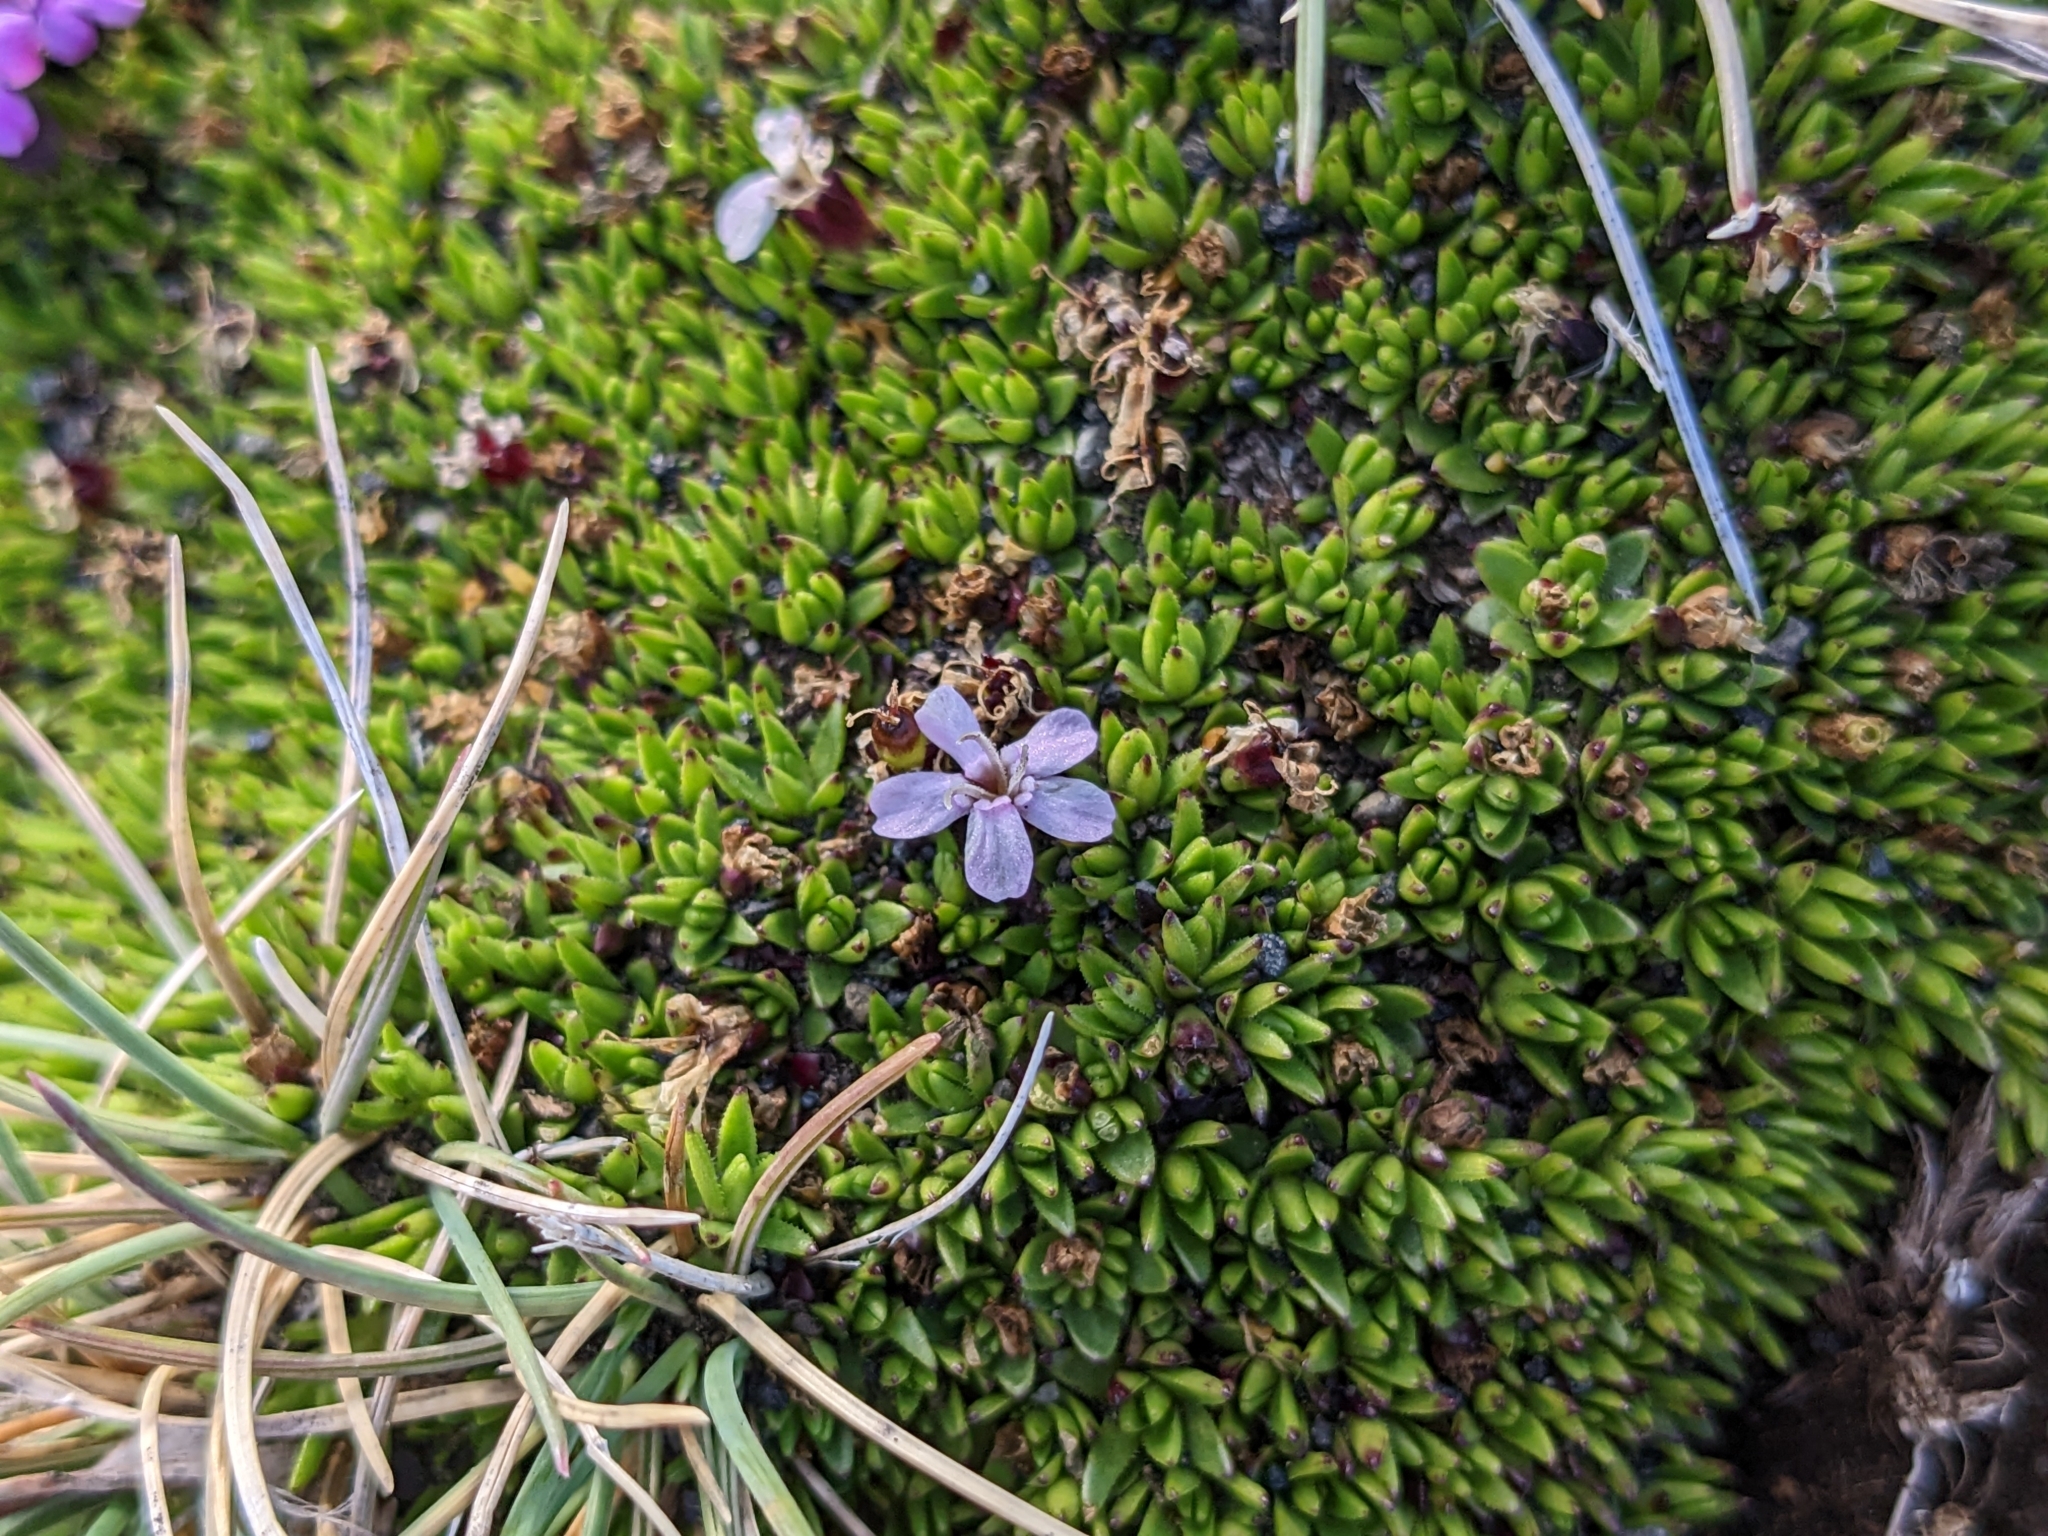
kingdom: Plantae
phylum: Tracheophyta
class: Magnoliopsida
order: Caryophyllales
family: Caryophyllaceae
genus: Silene
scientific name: Silene acaulis
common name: Moss campion
